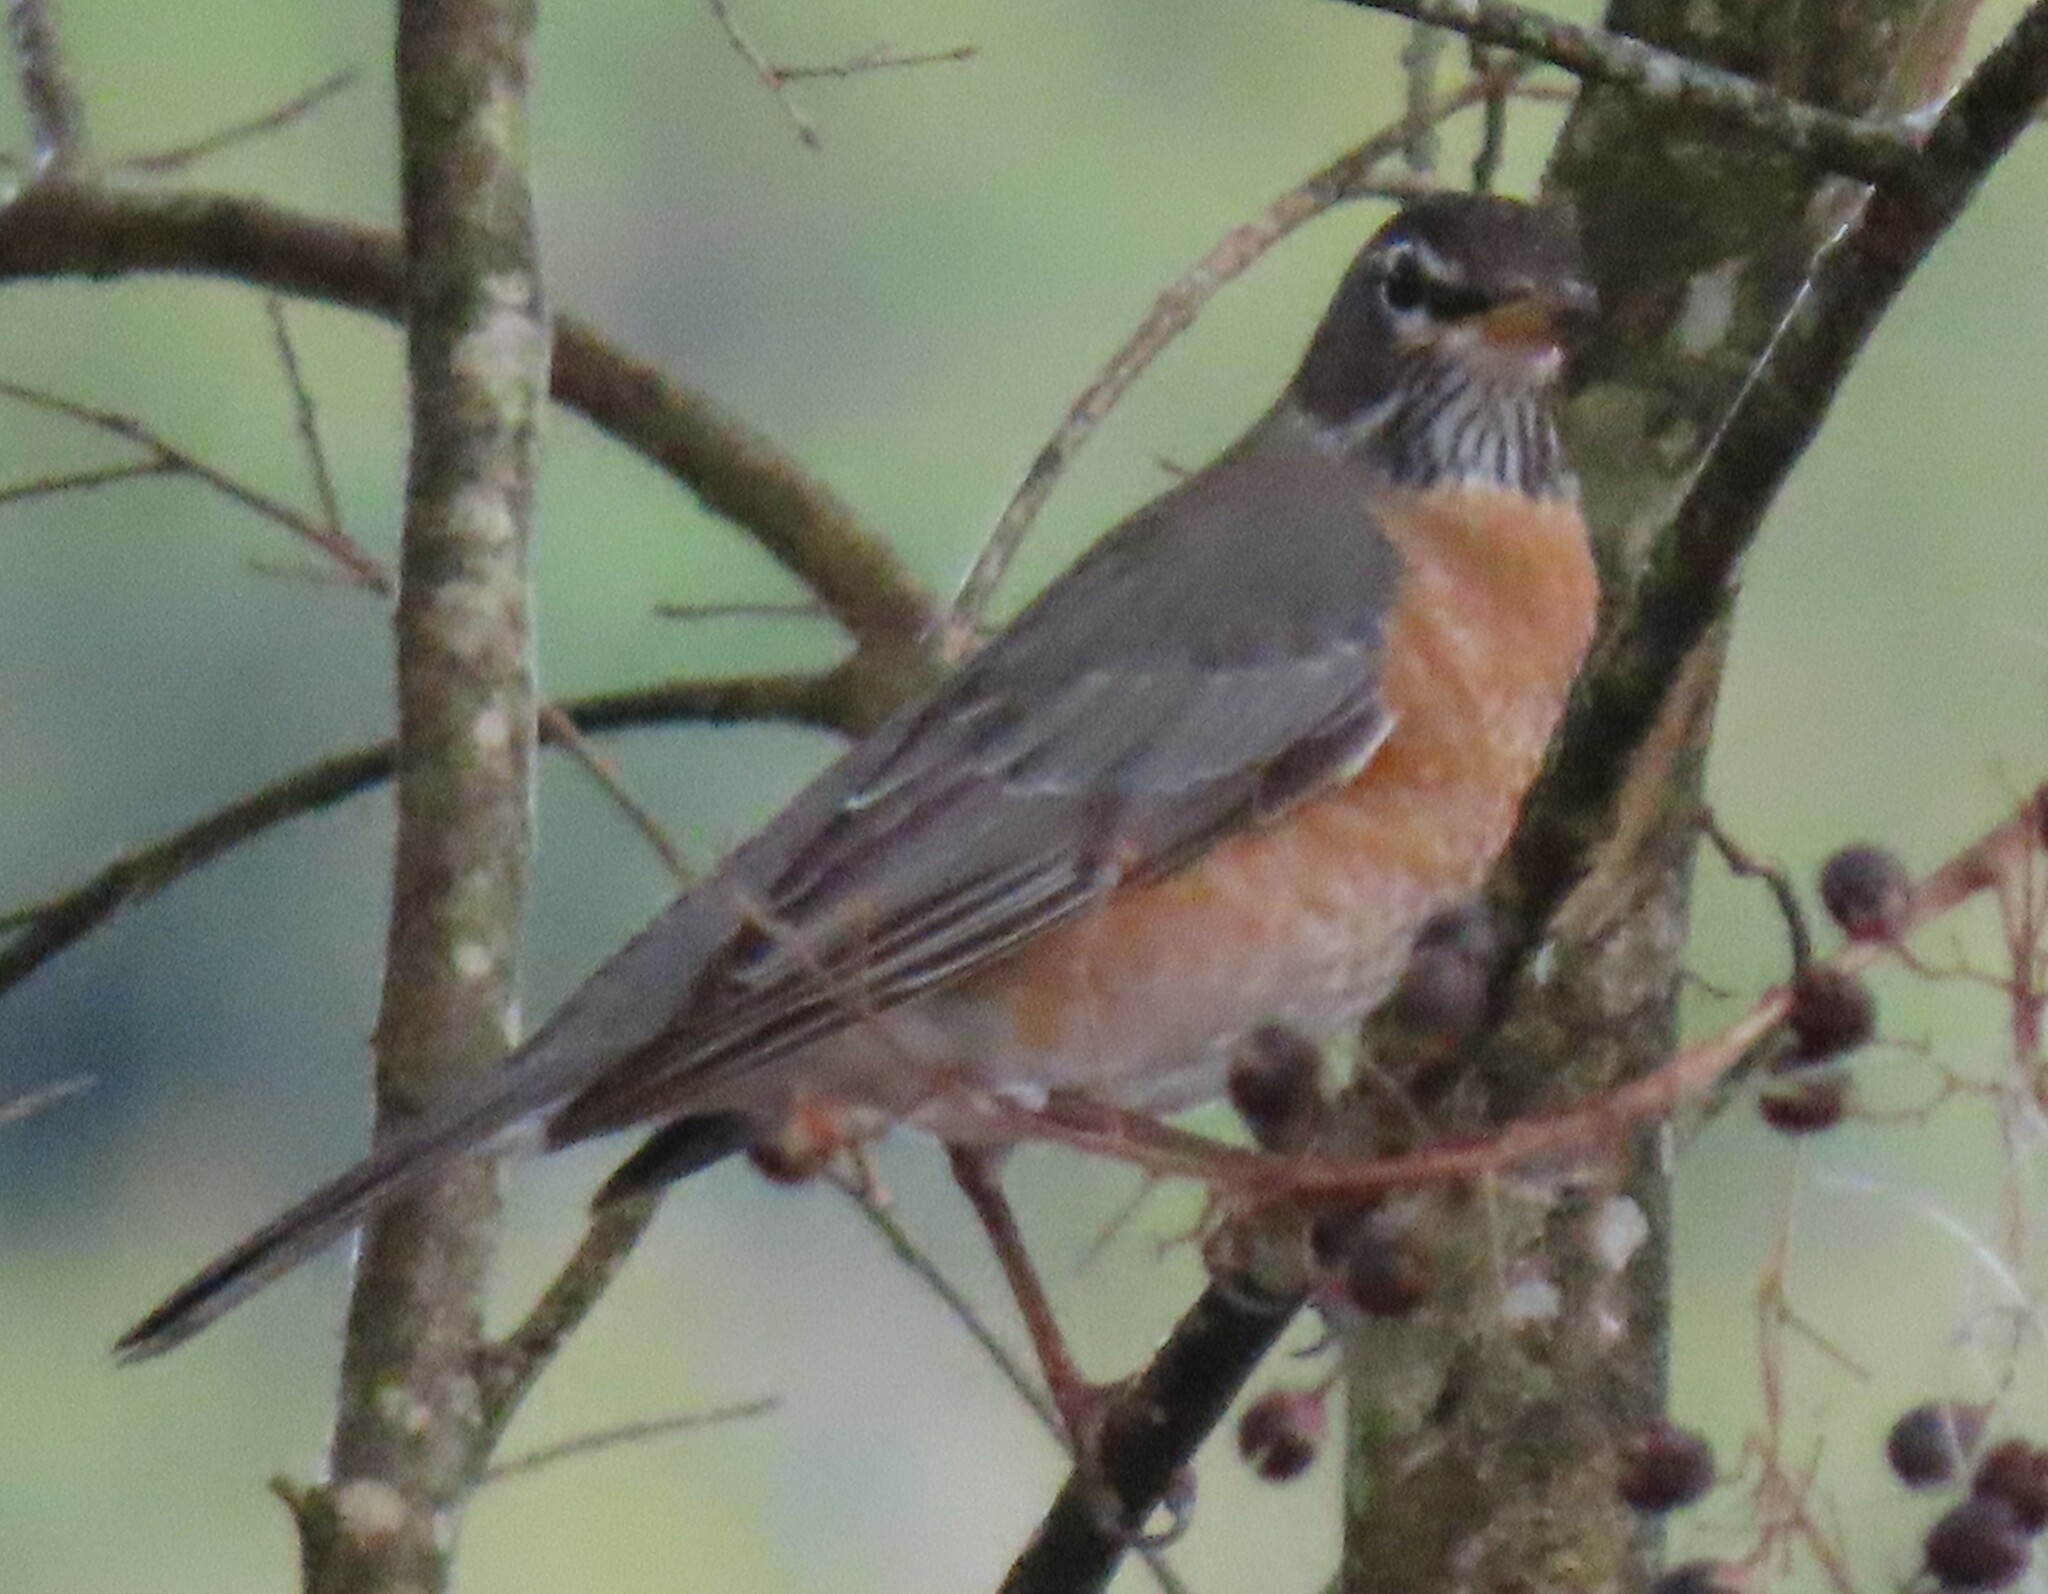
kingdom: Animalia
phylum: Chordata
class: Aves
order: Passeriformes
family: Turdidae
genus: Turdus
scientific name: Turdus migratorius
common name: American robin
